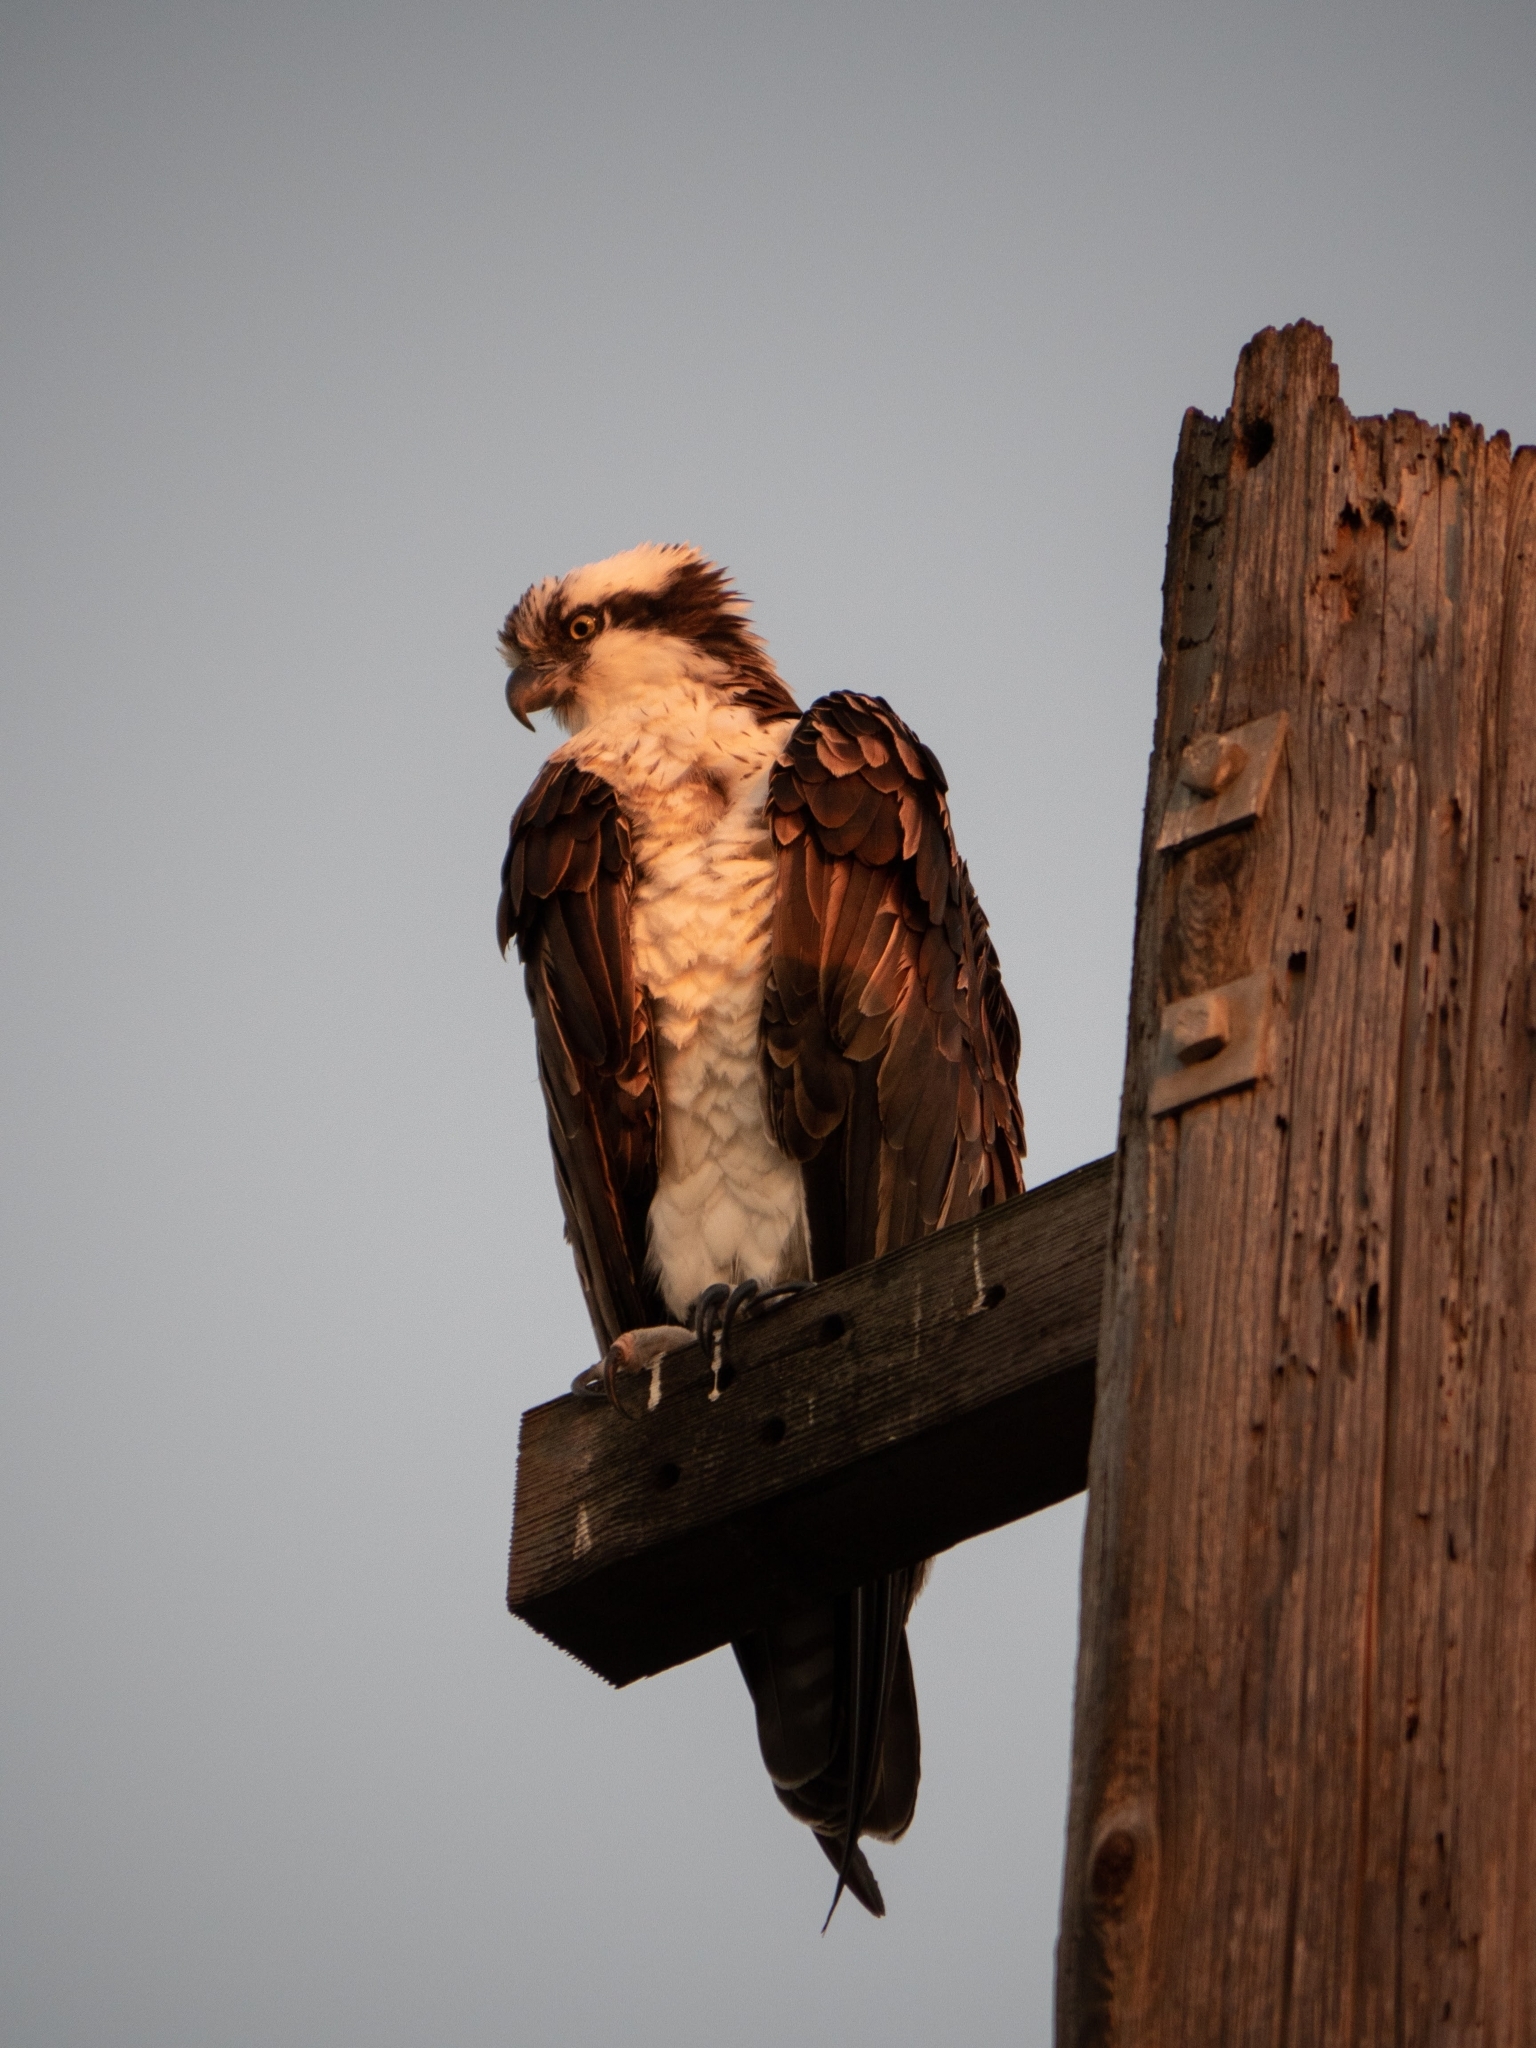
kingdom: Animalia
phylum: Chordata
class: Aves
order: Accipitriformes
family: Pandionidae
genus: Pandion
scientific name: Pandion haliaetus
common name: Osprey
